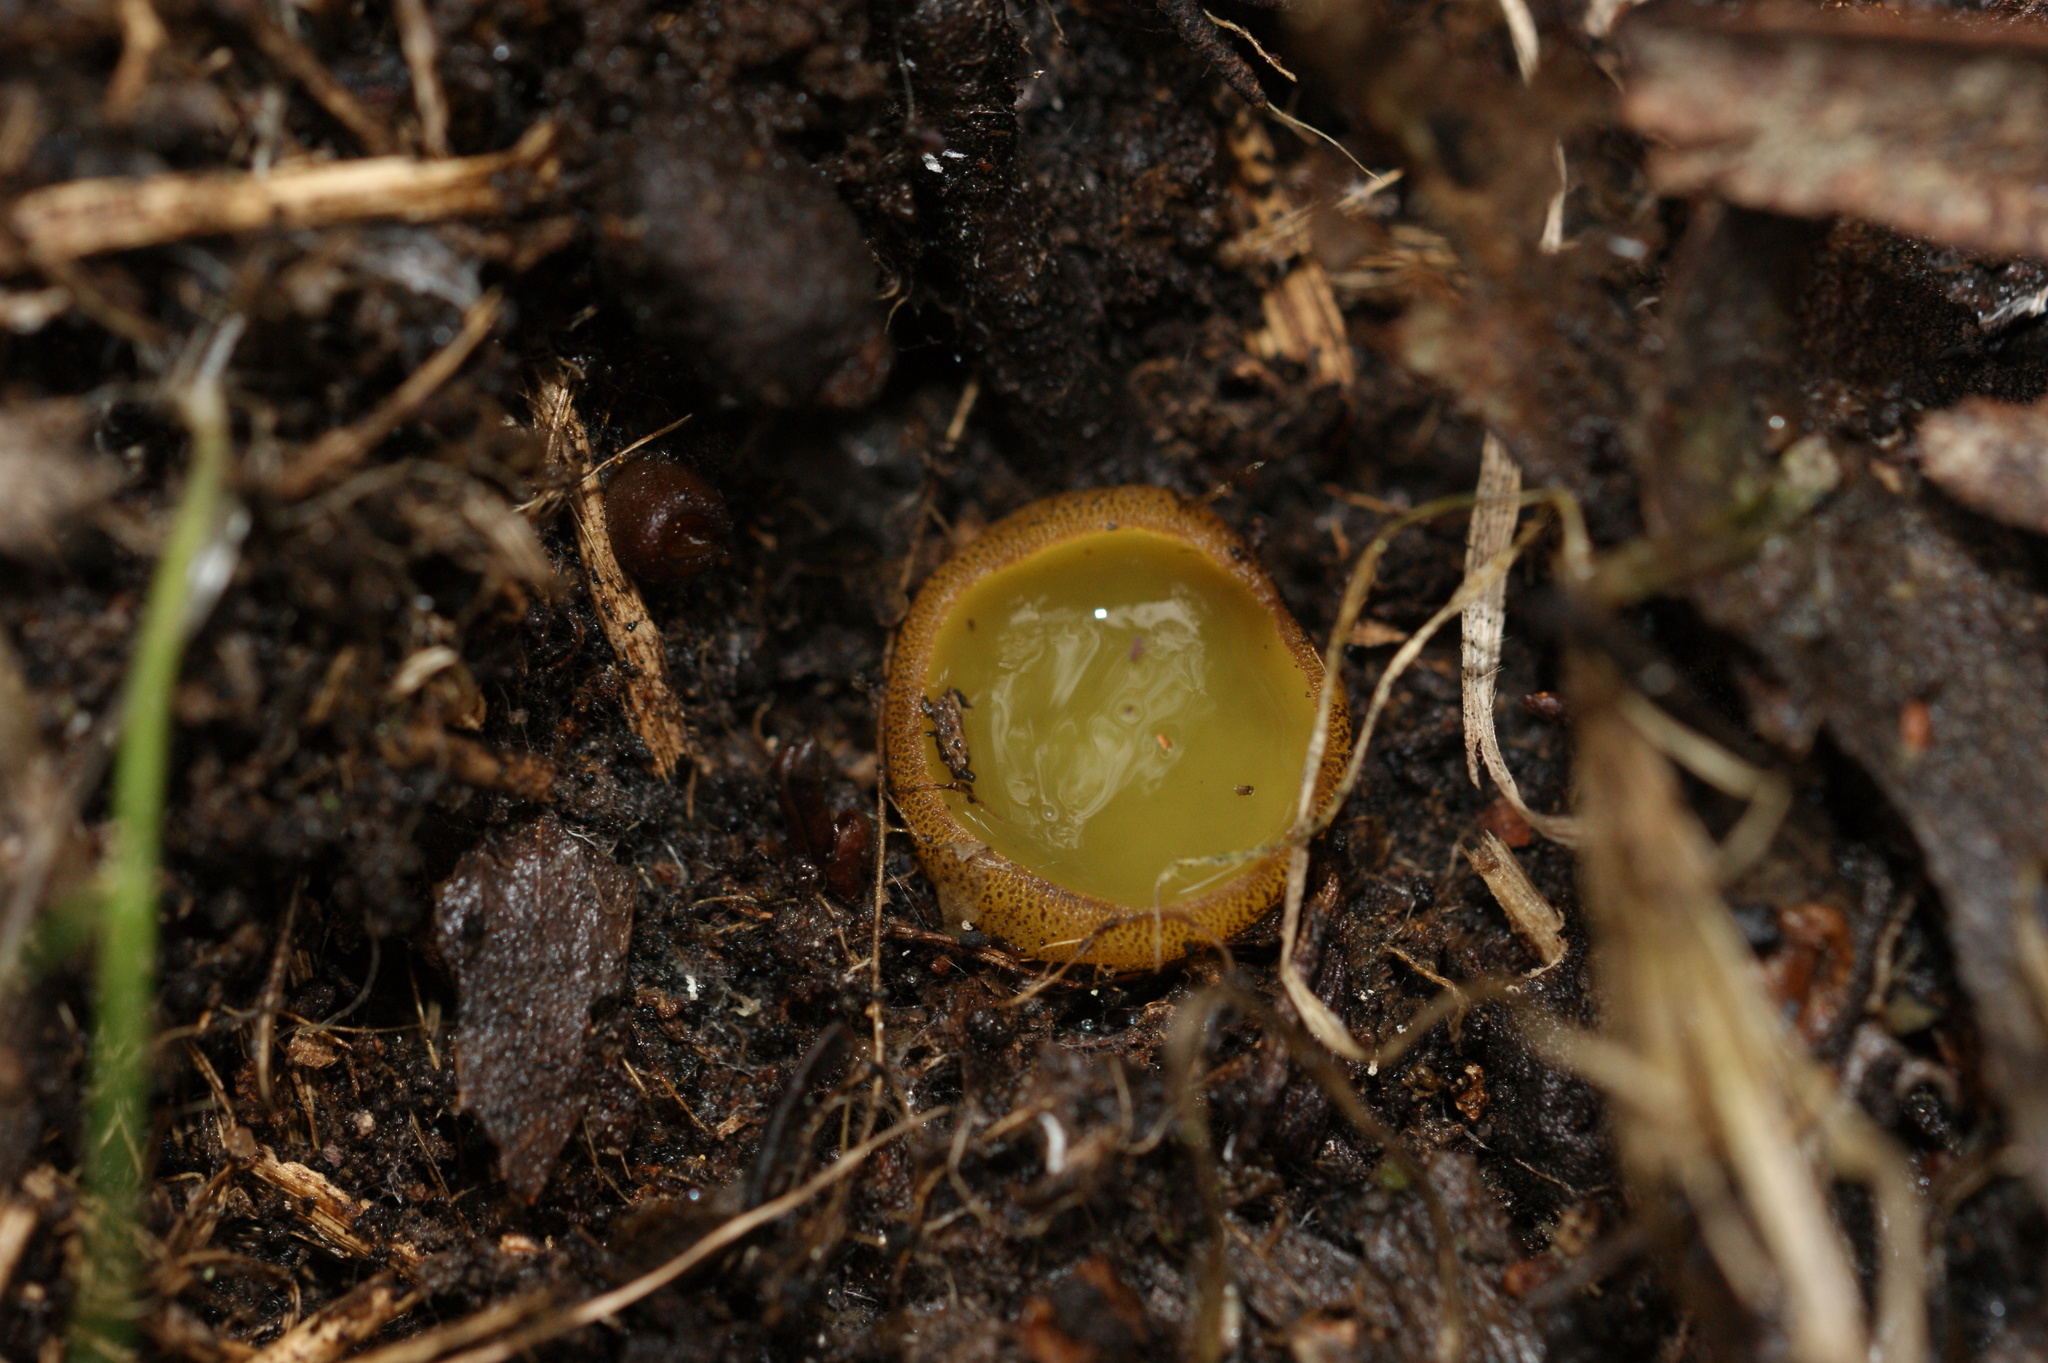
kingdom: Fungi
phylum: Ascomycota
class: Pezizomycetes
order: Pezizales
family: Pyronemataceae
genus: Aleurina
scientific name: Aleurina ferruginea
